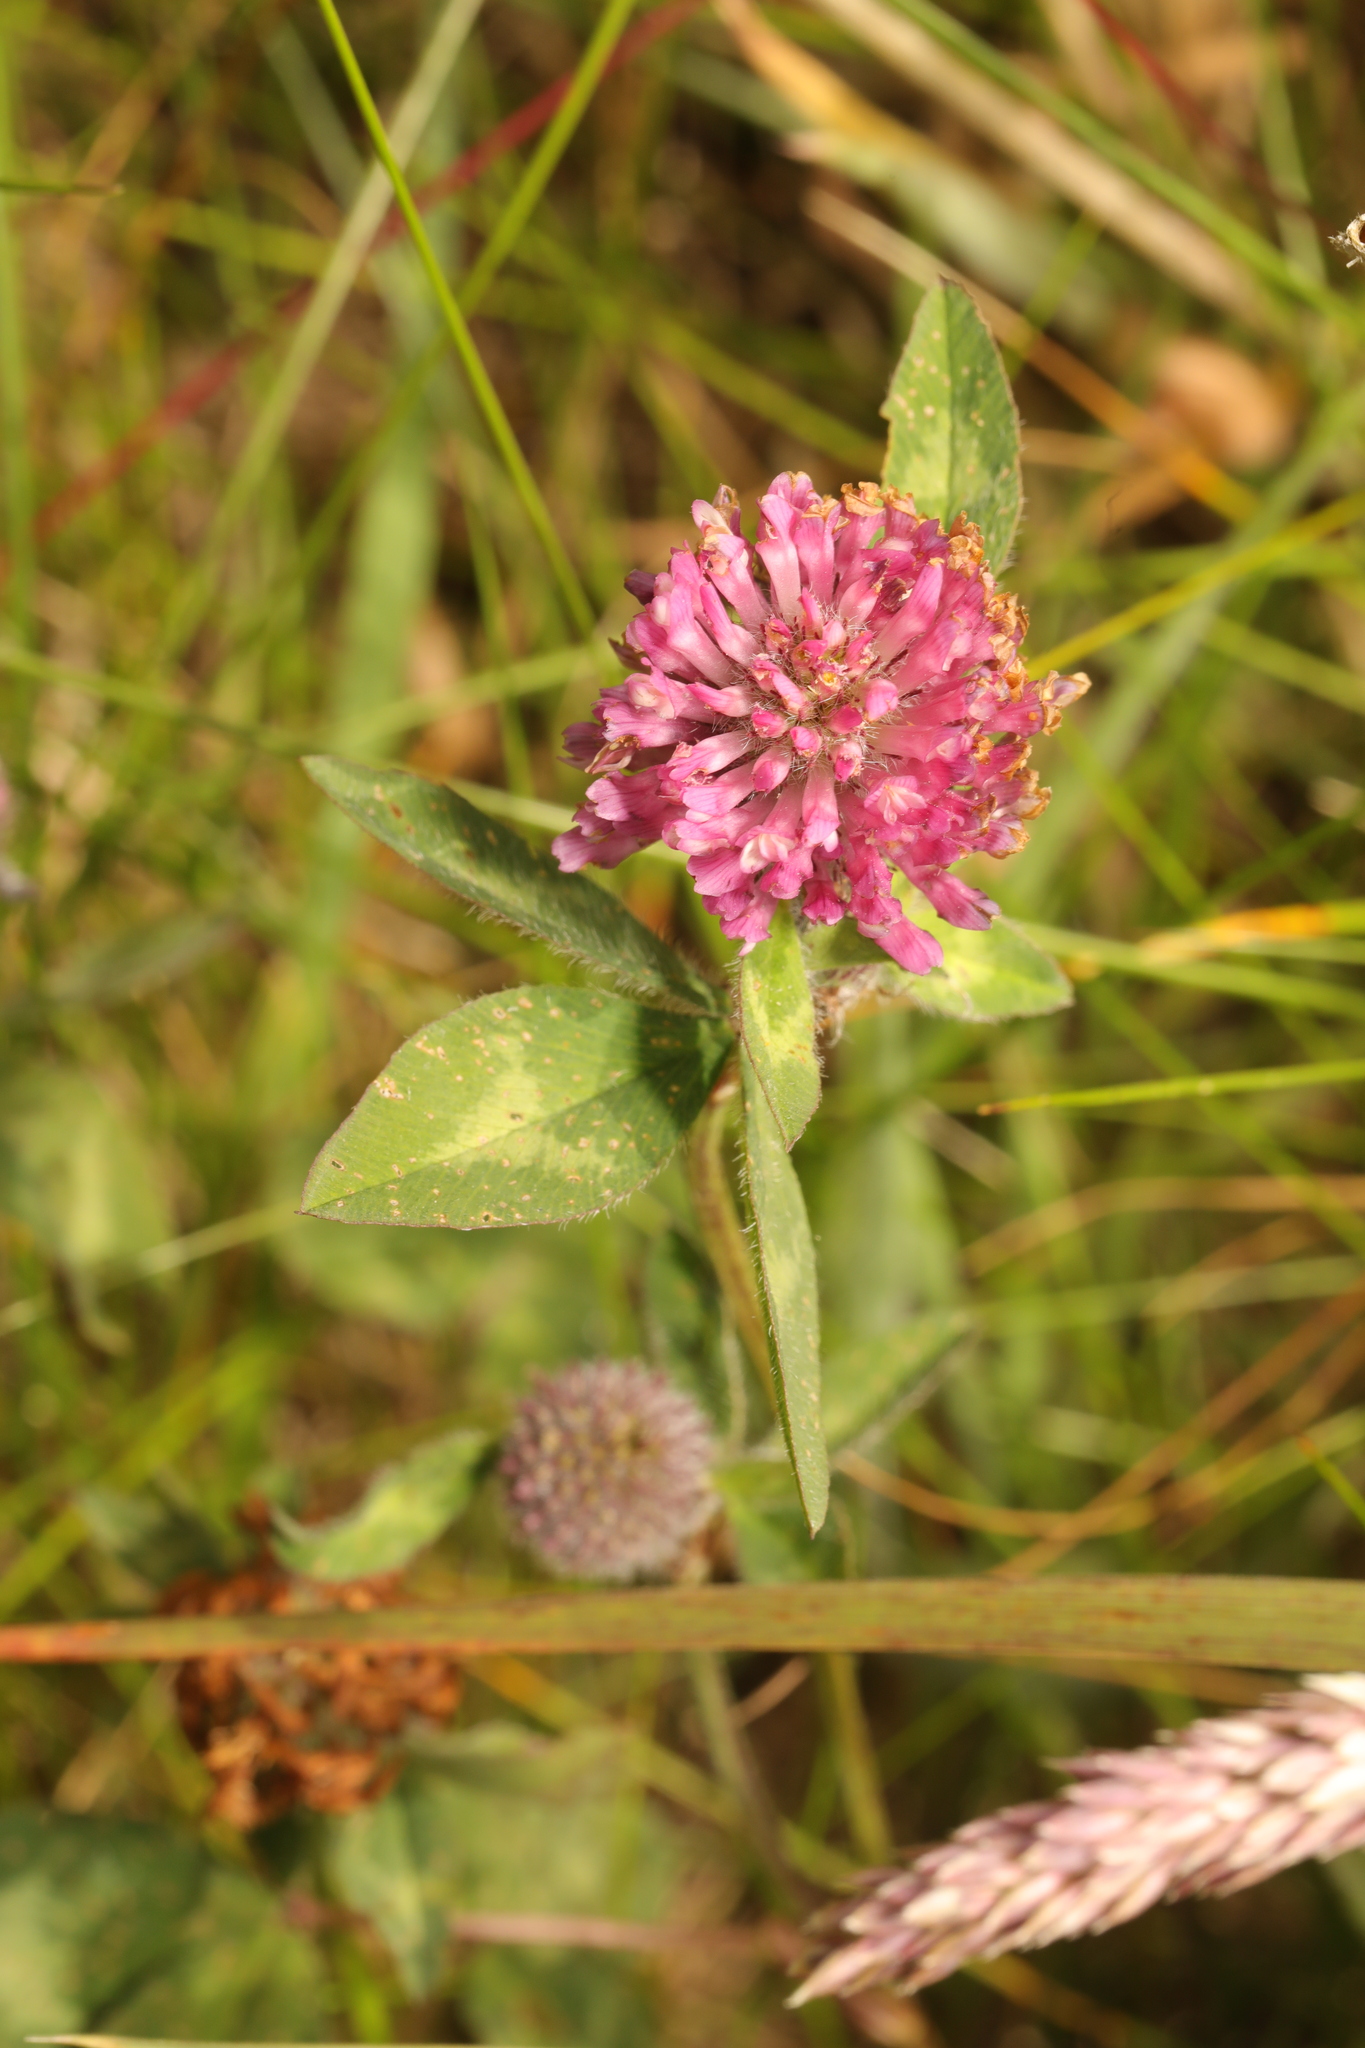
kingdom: Plantae
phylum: Tracheophyta
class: Magnoliopsida
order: Fabales
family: Fabaceae
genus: Trifolium
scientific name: Trifolium pratense
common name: Red clover
